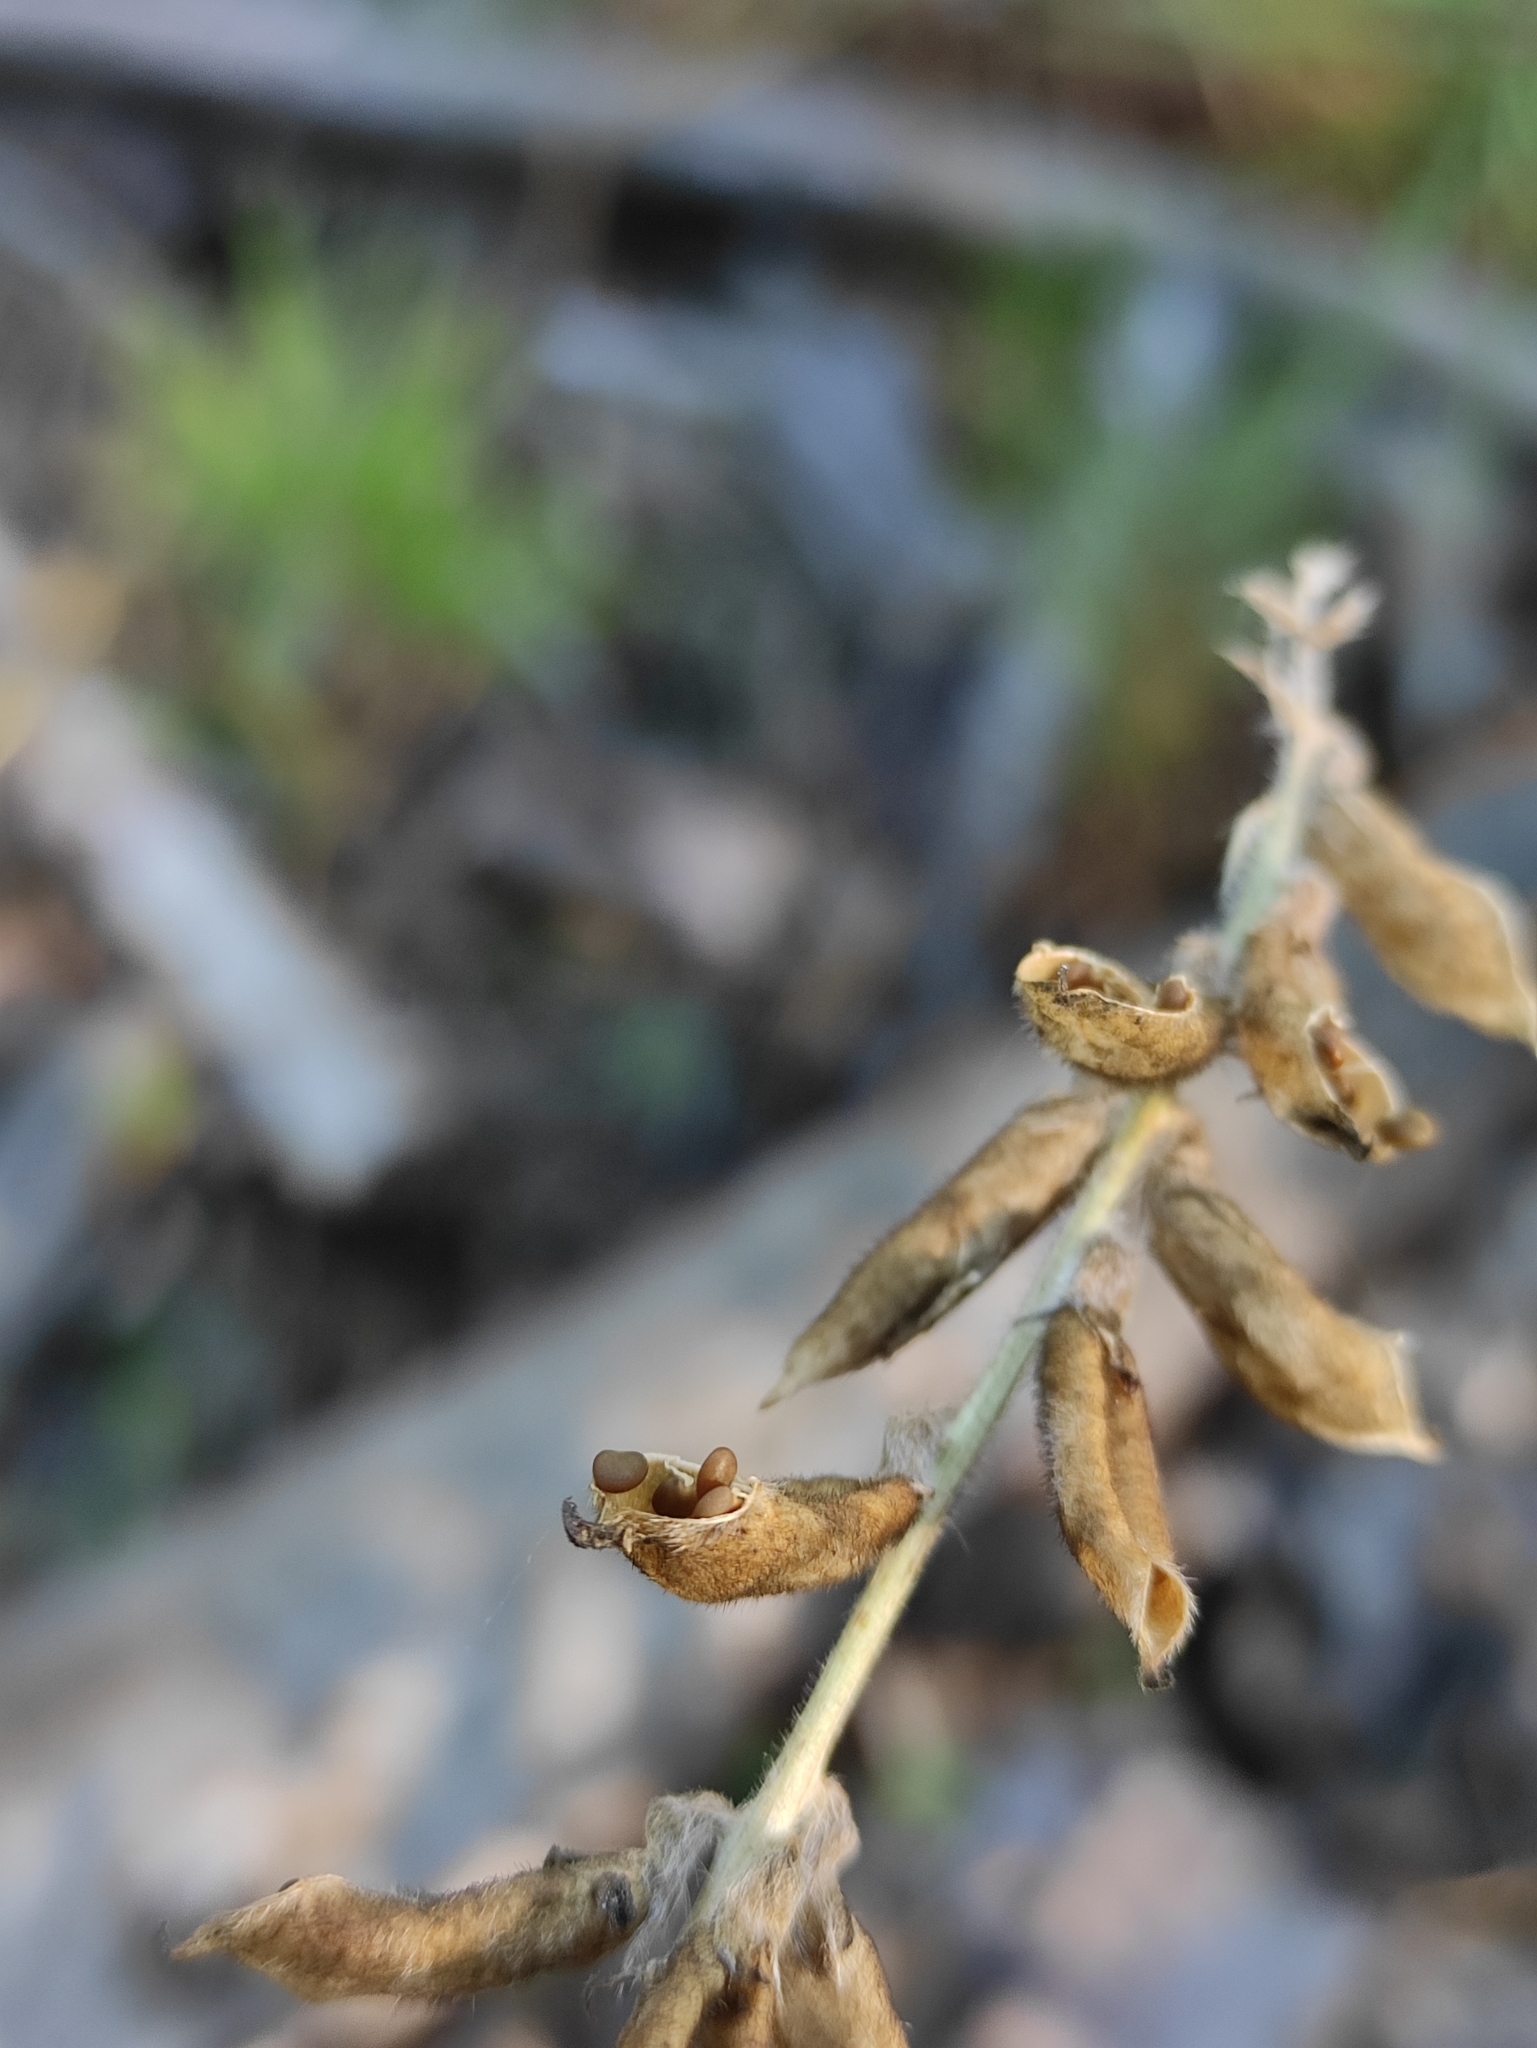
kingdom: Plantae
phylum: Tracheophyta
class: Magnoliopsida
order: Fabales
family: Fabaceae
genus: Oxytropis
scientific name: Oxytropis deflexa
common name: Stemmed oxytrope
